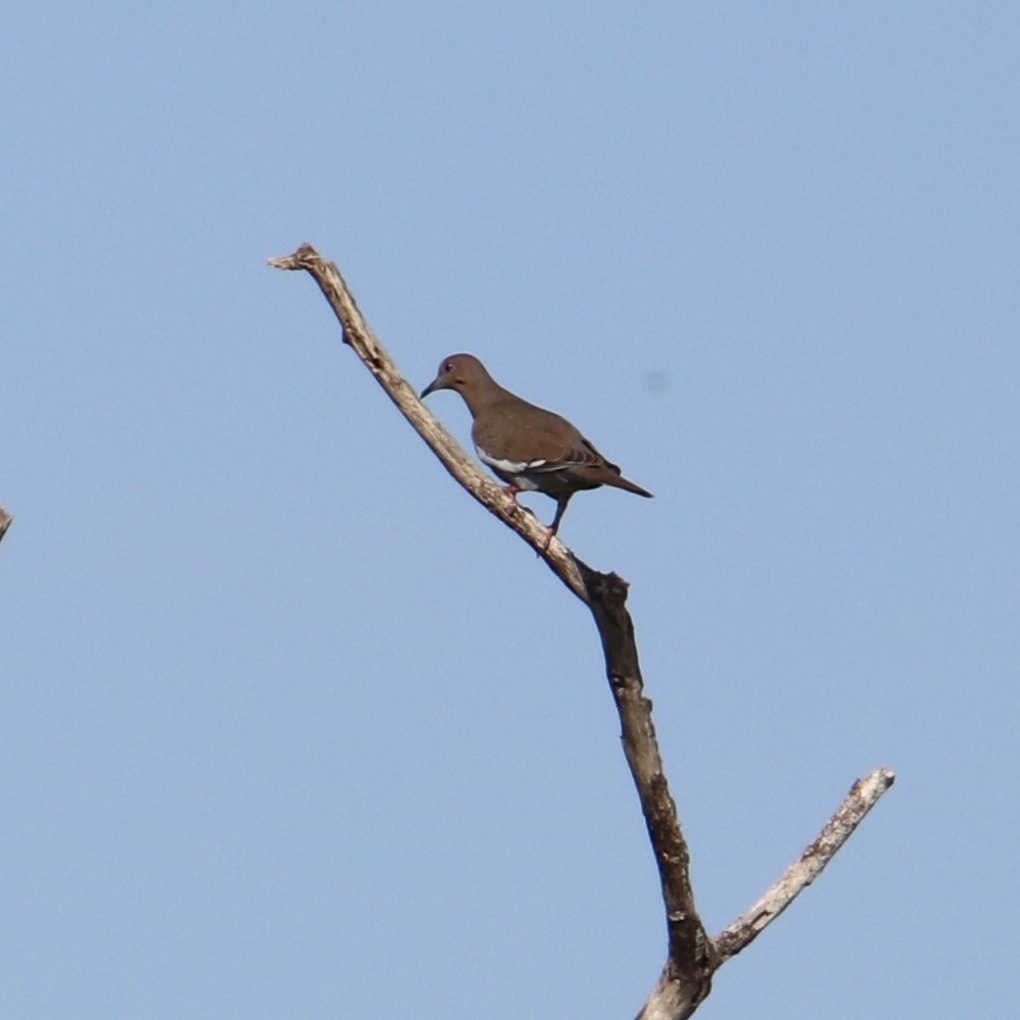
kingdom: Animalia
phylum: Chordata
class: Aves
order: Columbiformes
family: Columbidae
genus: Zenaida
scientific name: Zenaida asiatica
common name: White-winged dove
